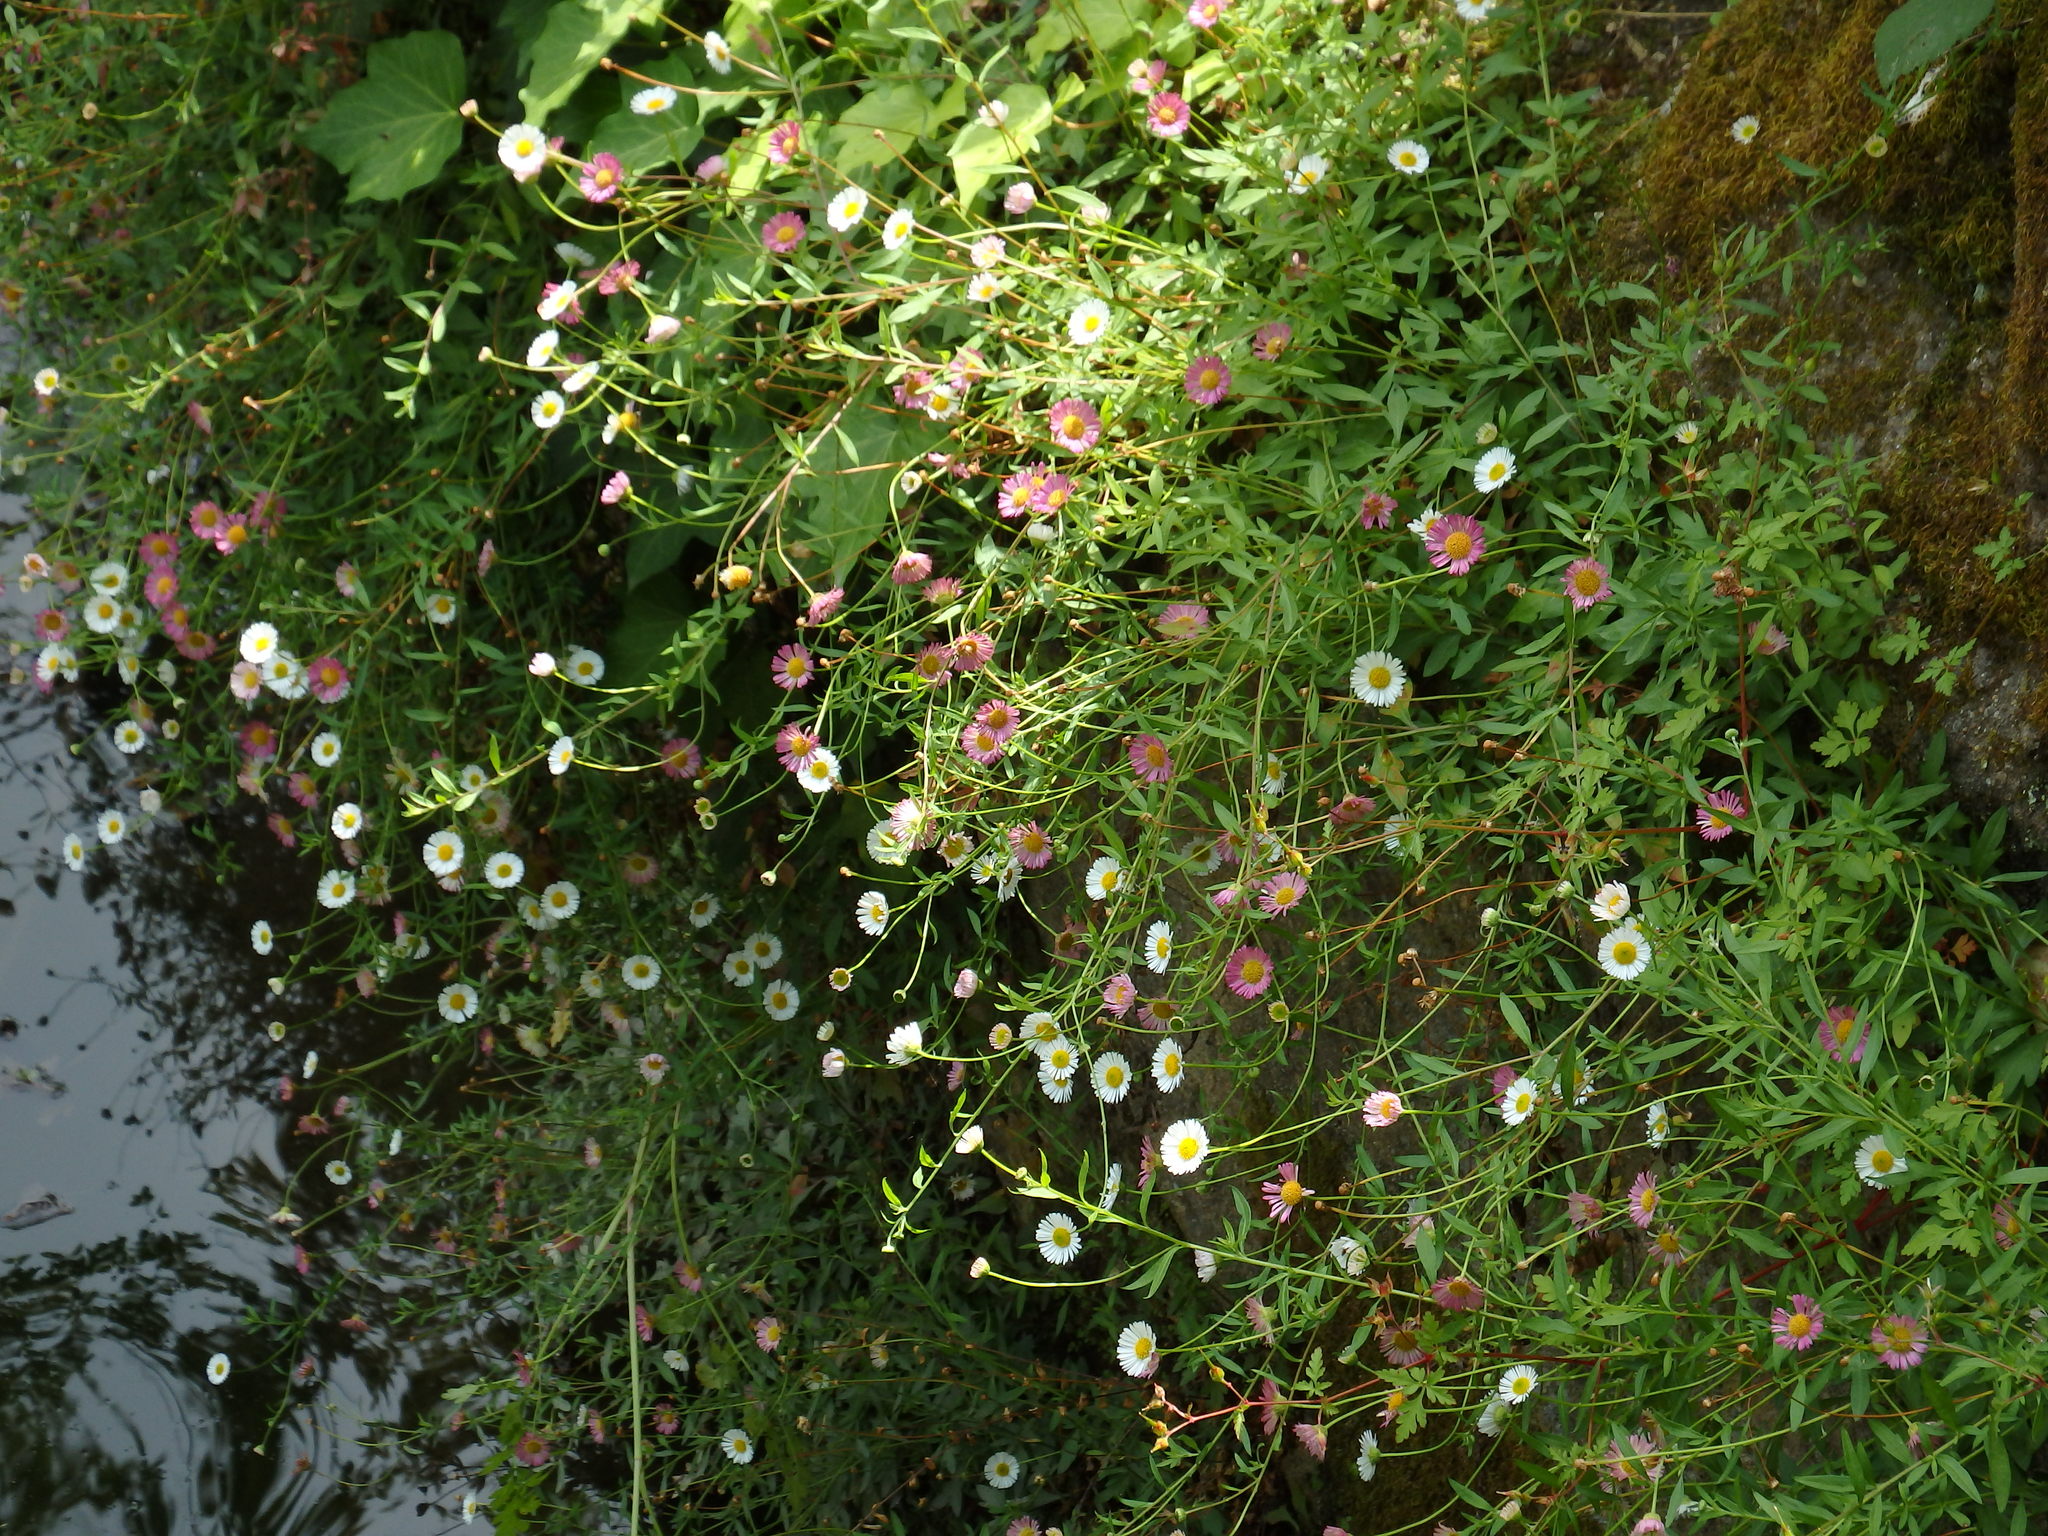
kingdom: Plantae
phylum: Tracheophyta
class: Magnoliopsida
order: Asterales
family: Asteraceae
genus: Erigeron
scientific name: Erigeron karvinskianus
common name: Mexican fleabane
